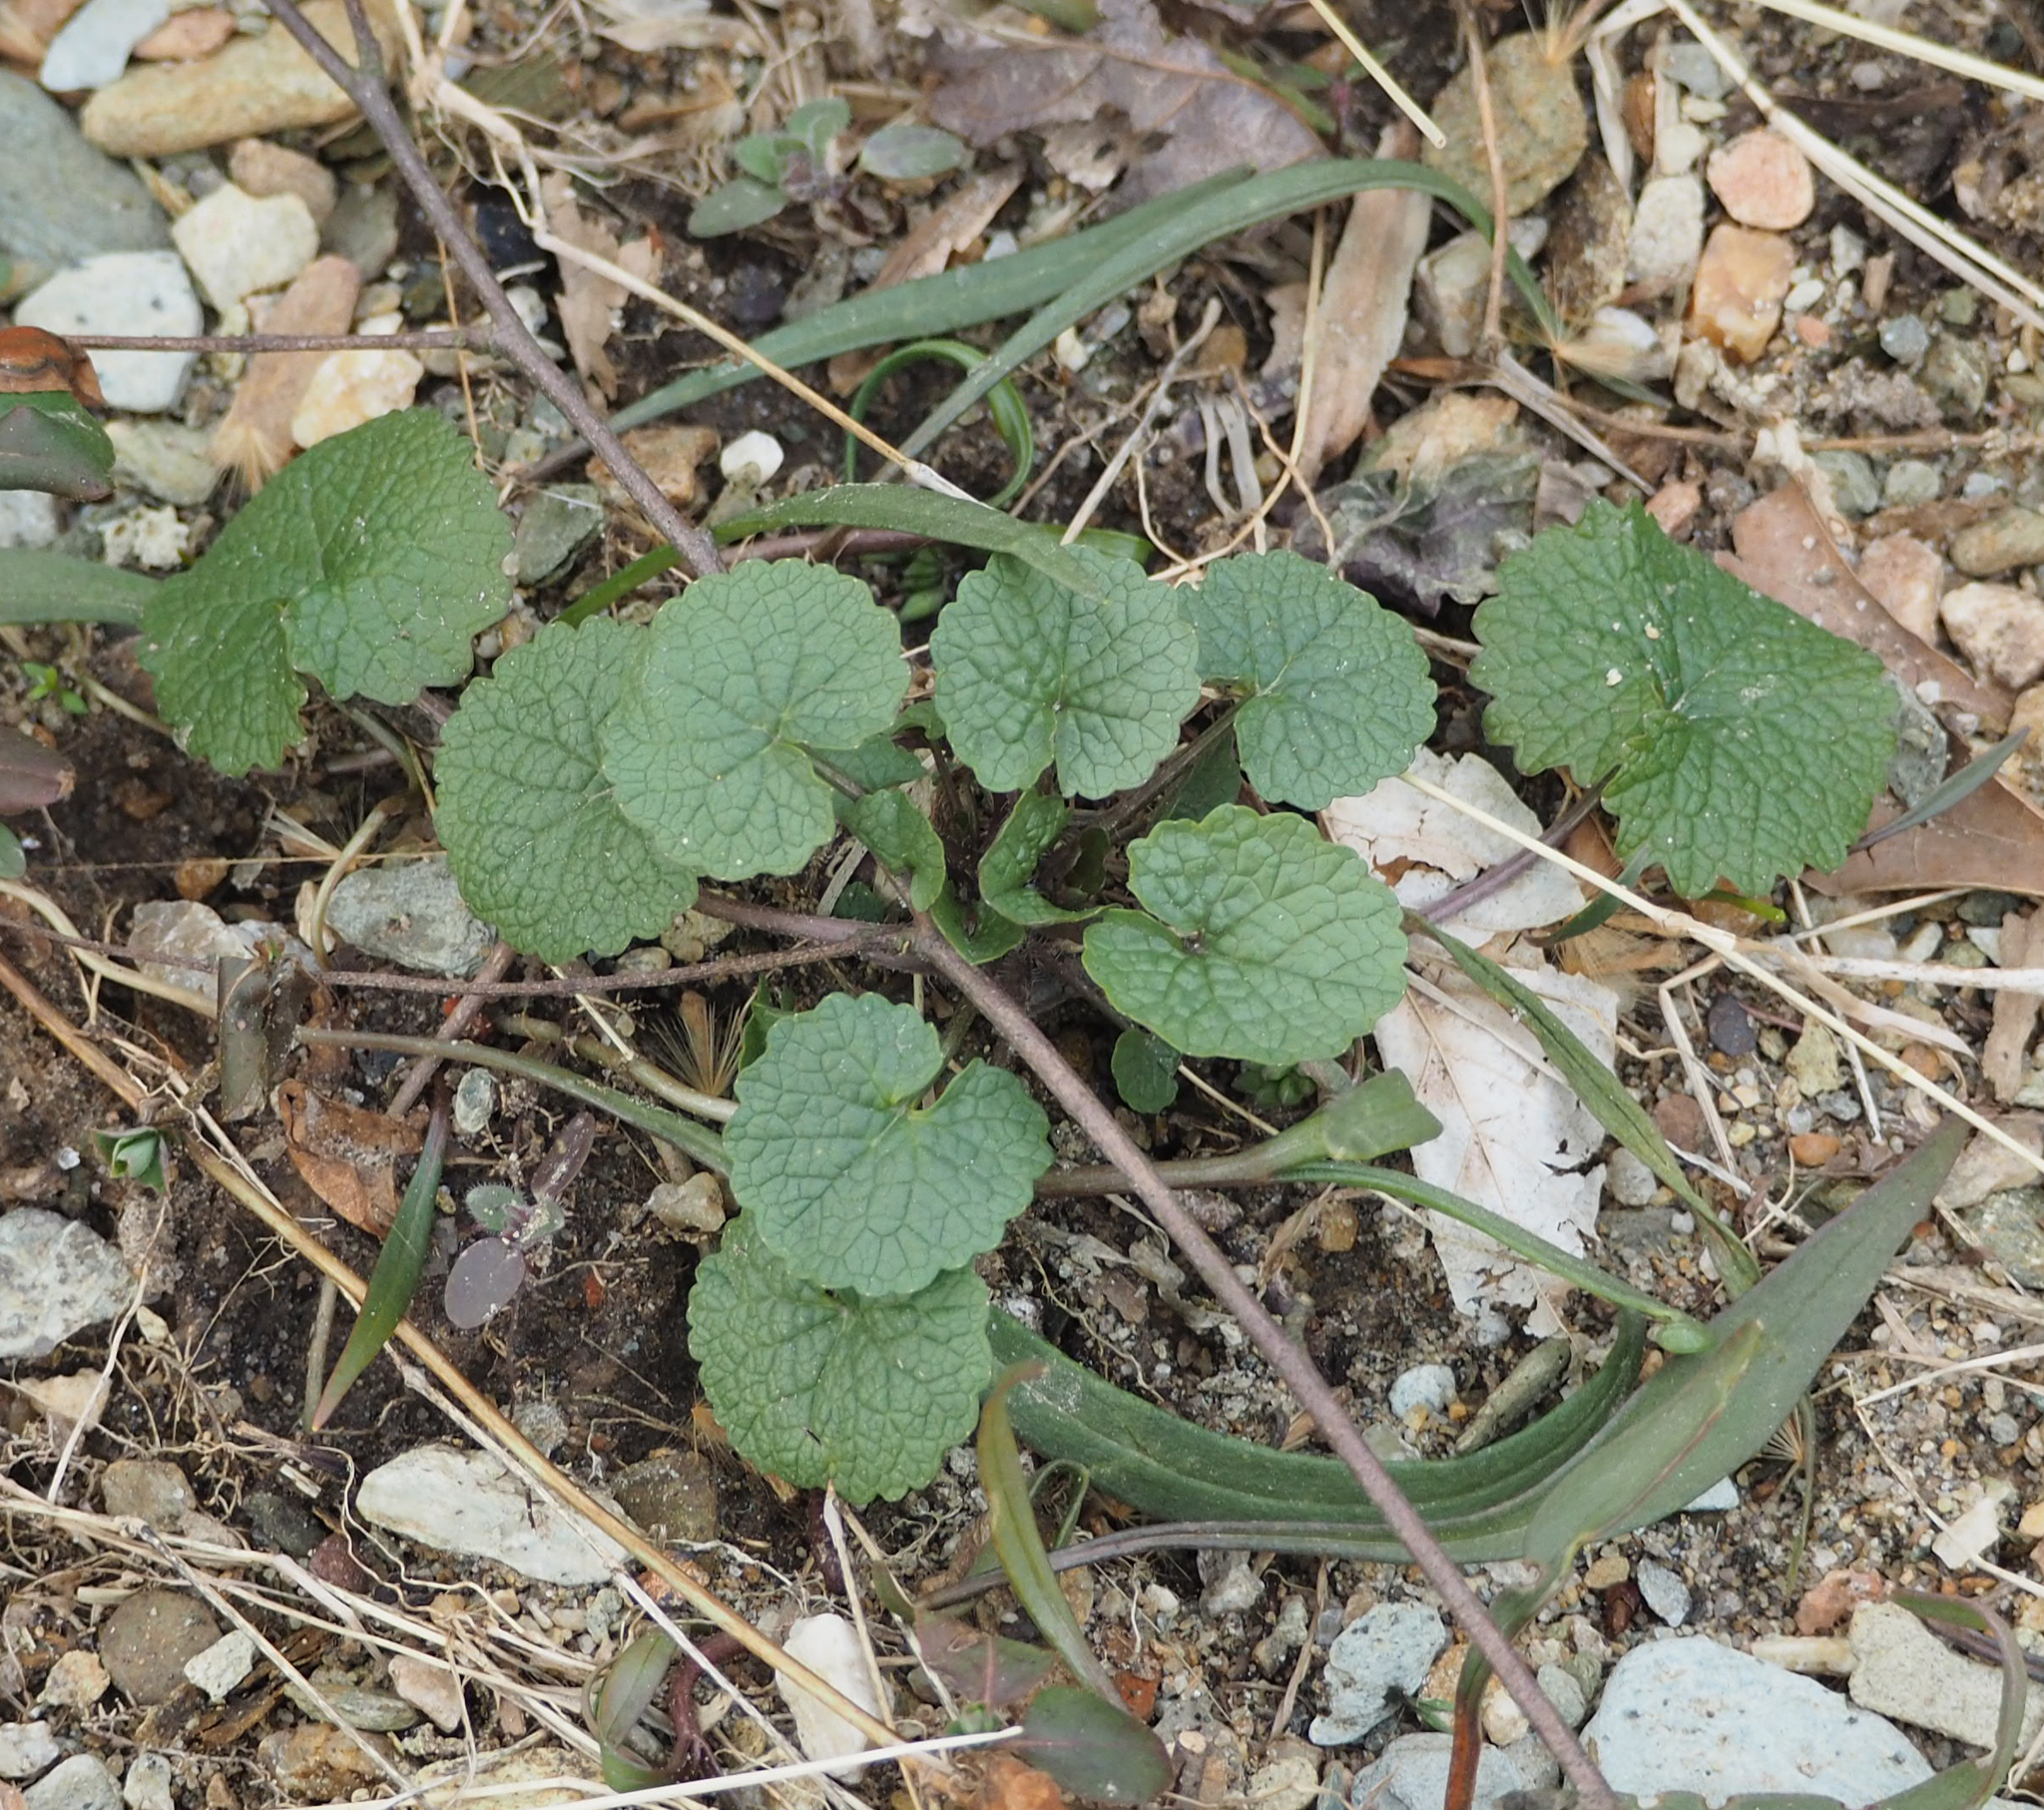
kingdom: Plantae
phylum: Tracheophyta
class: Magnoliopsida
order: Brassicales
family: Brassicaceae
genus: Alliaria
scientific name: Alliaria petiolata
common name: Garlic mustard
